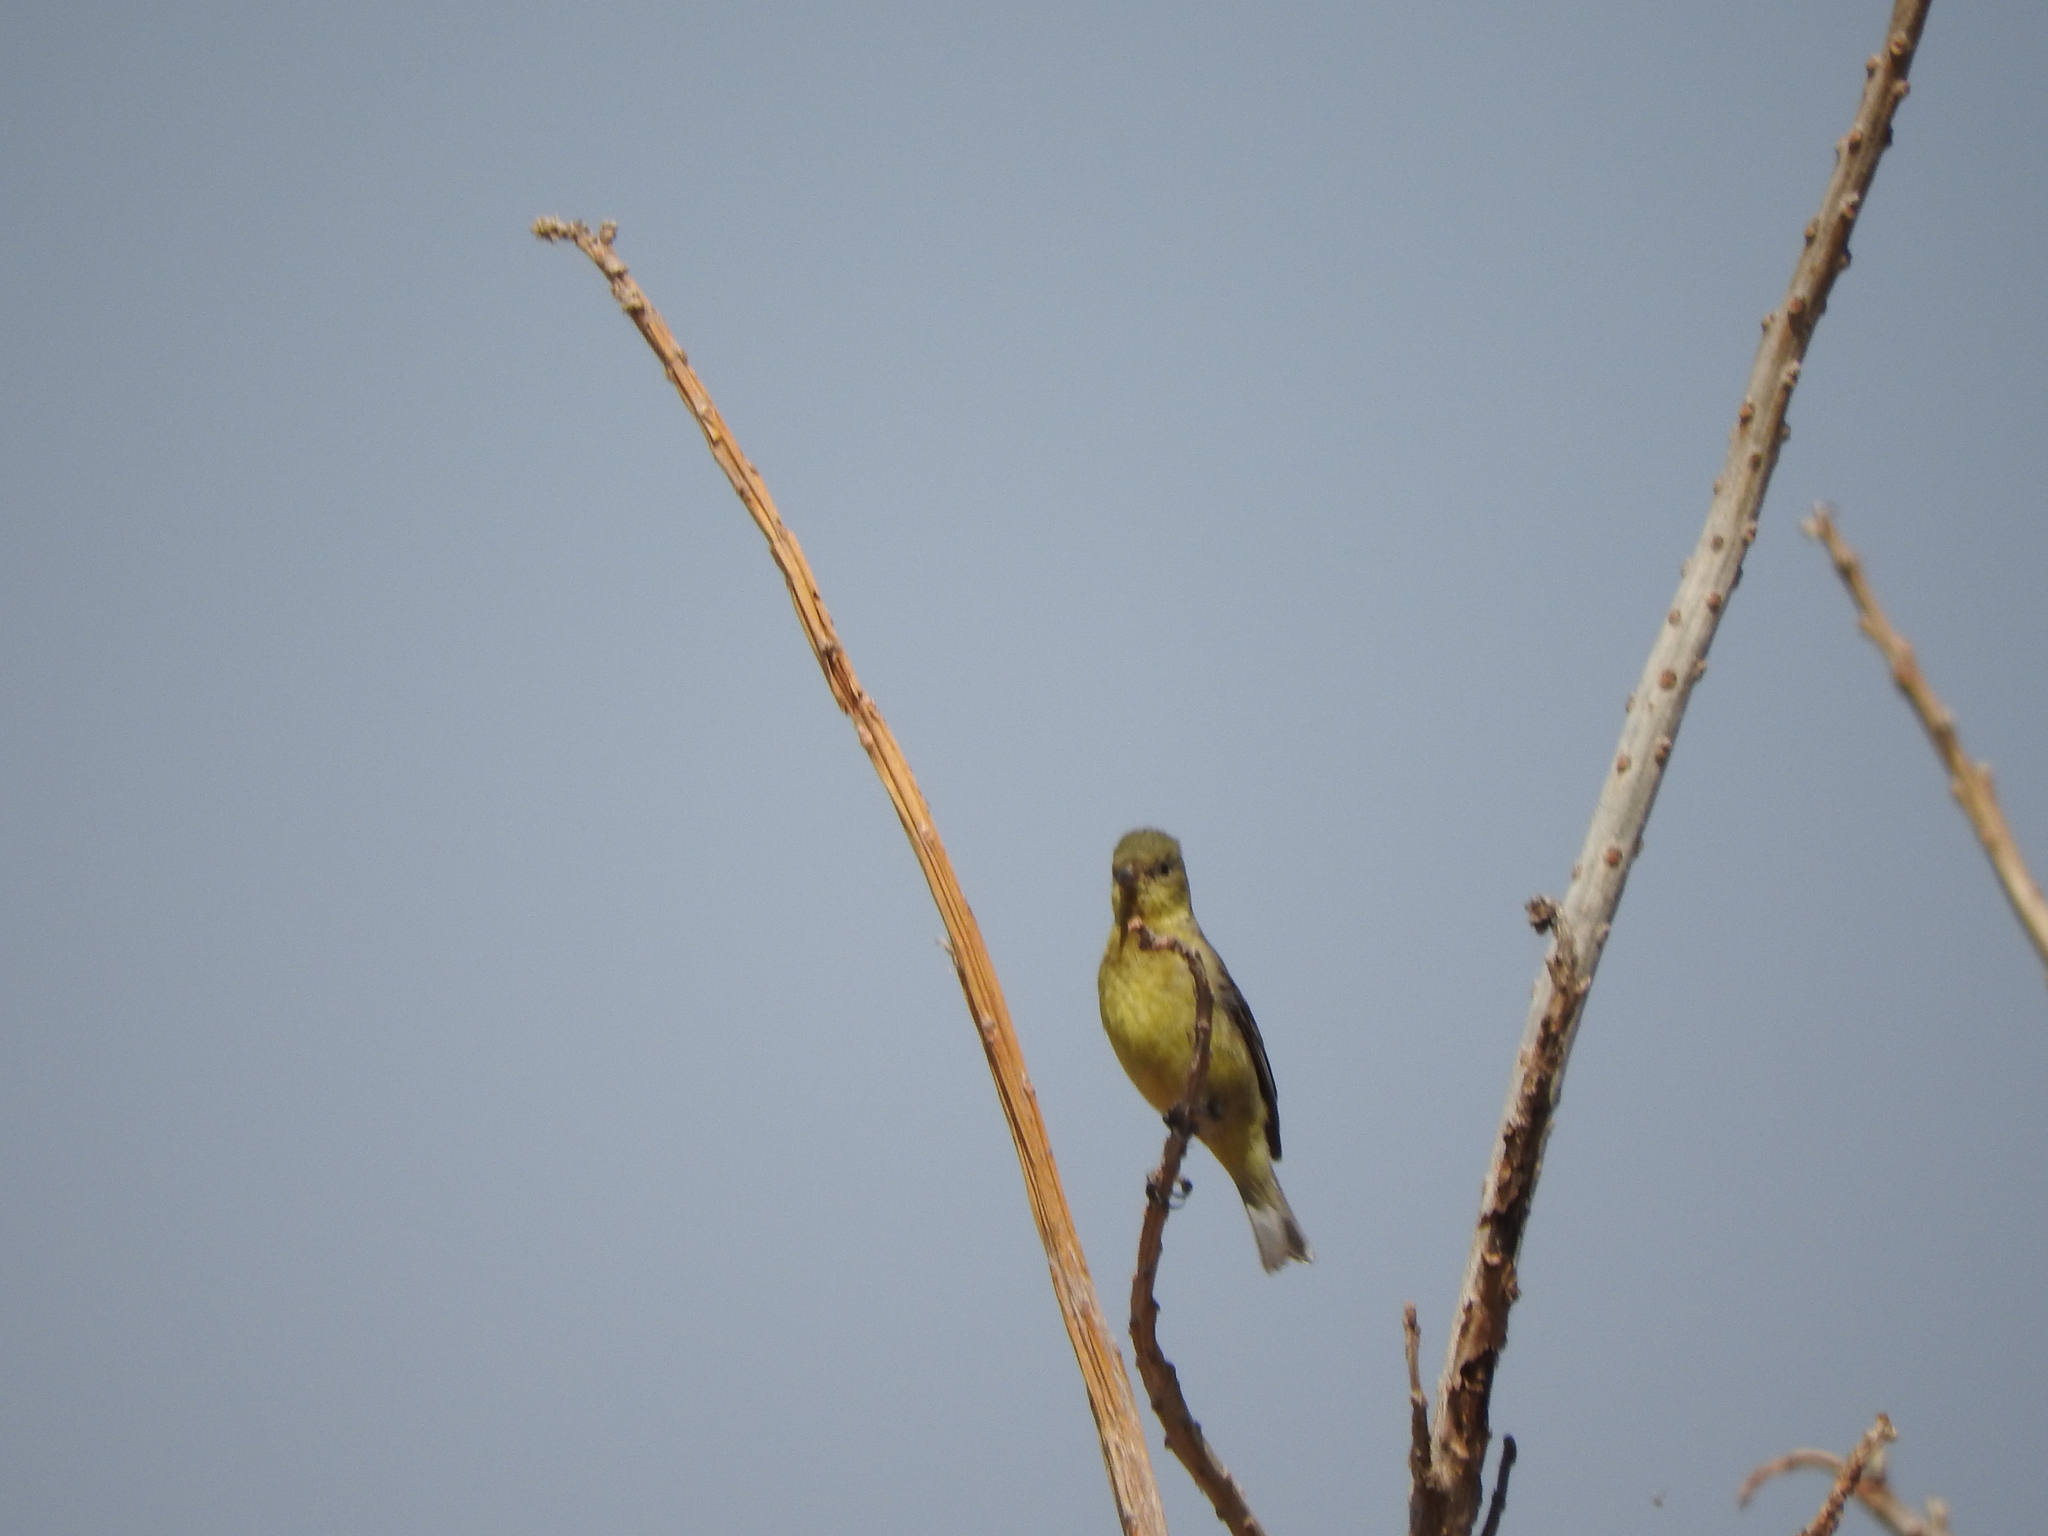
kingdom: Animalia
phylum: Chordata
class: Aves
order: Passeriformes
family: Thraupidae
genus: Sporophila
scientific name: Sporophila torqueola
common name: White-collared seedeater
